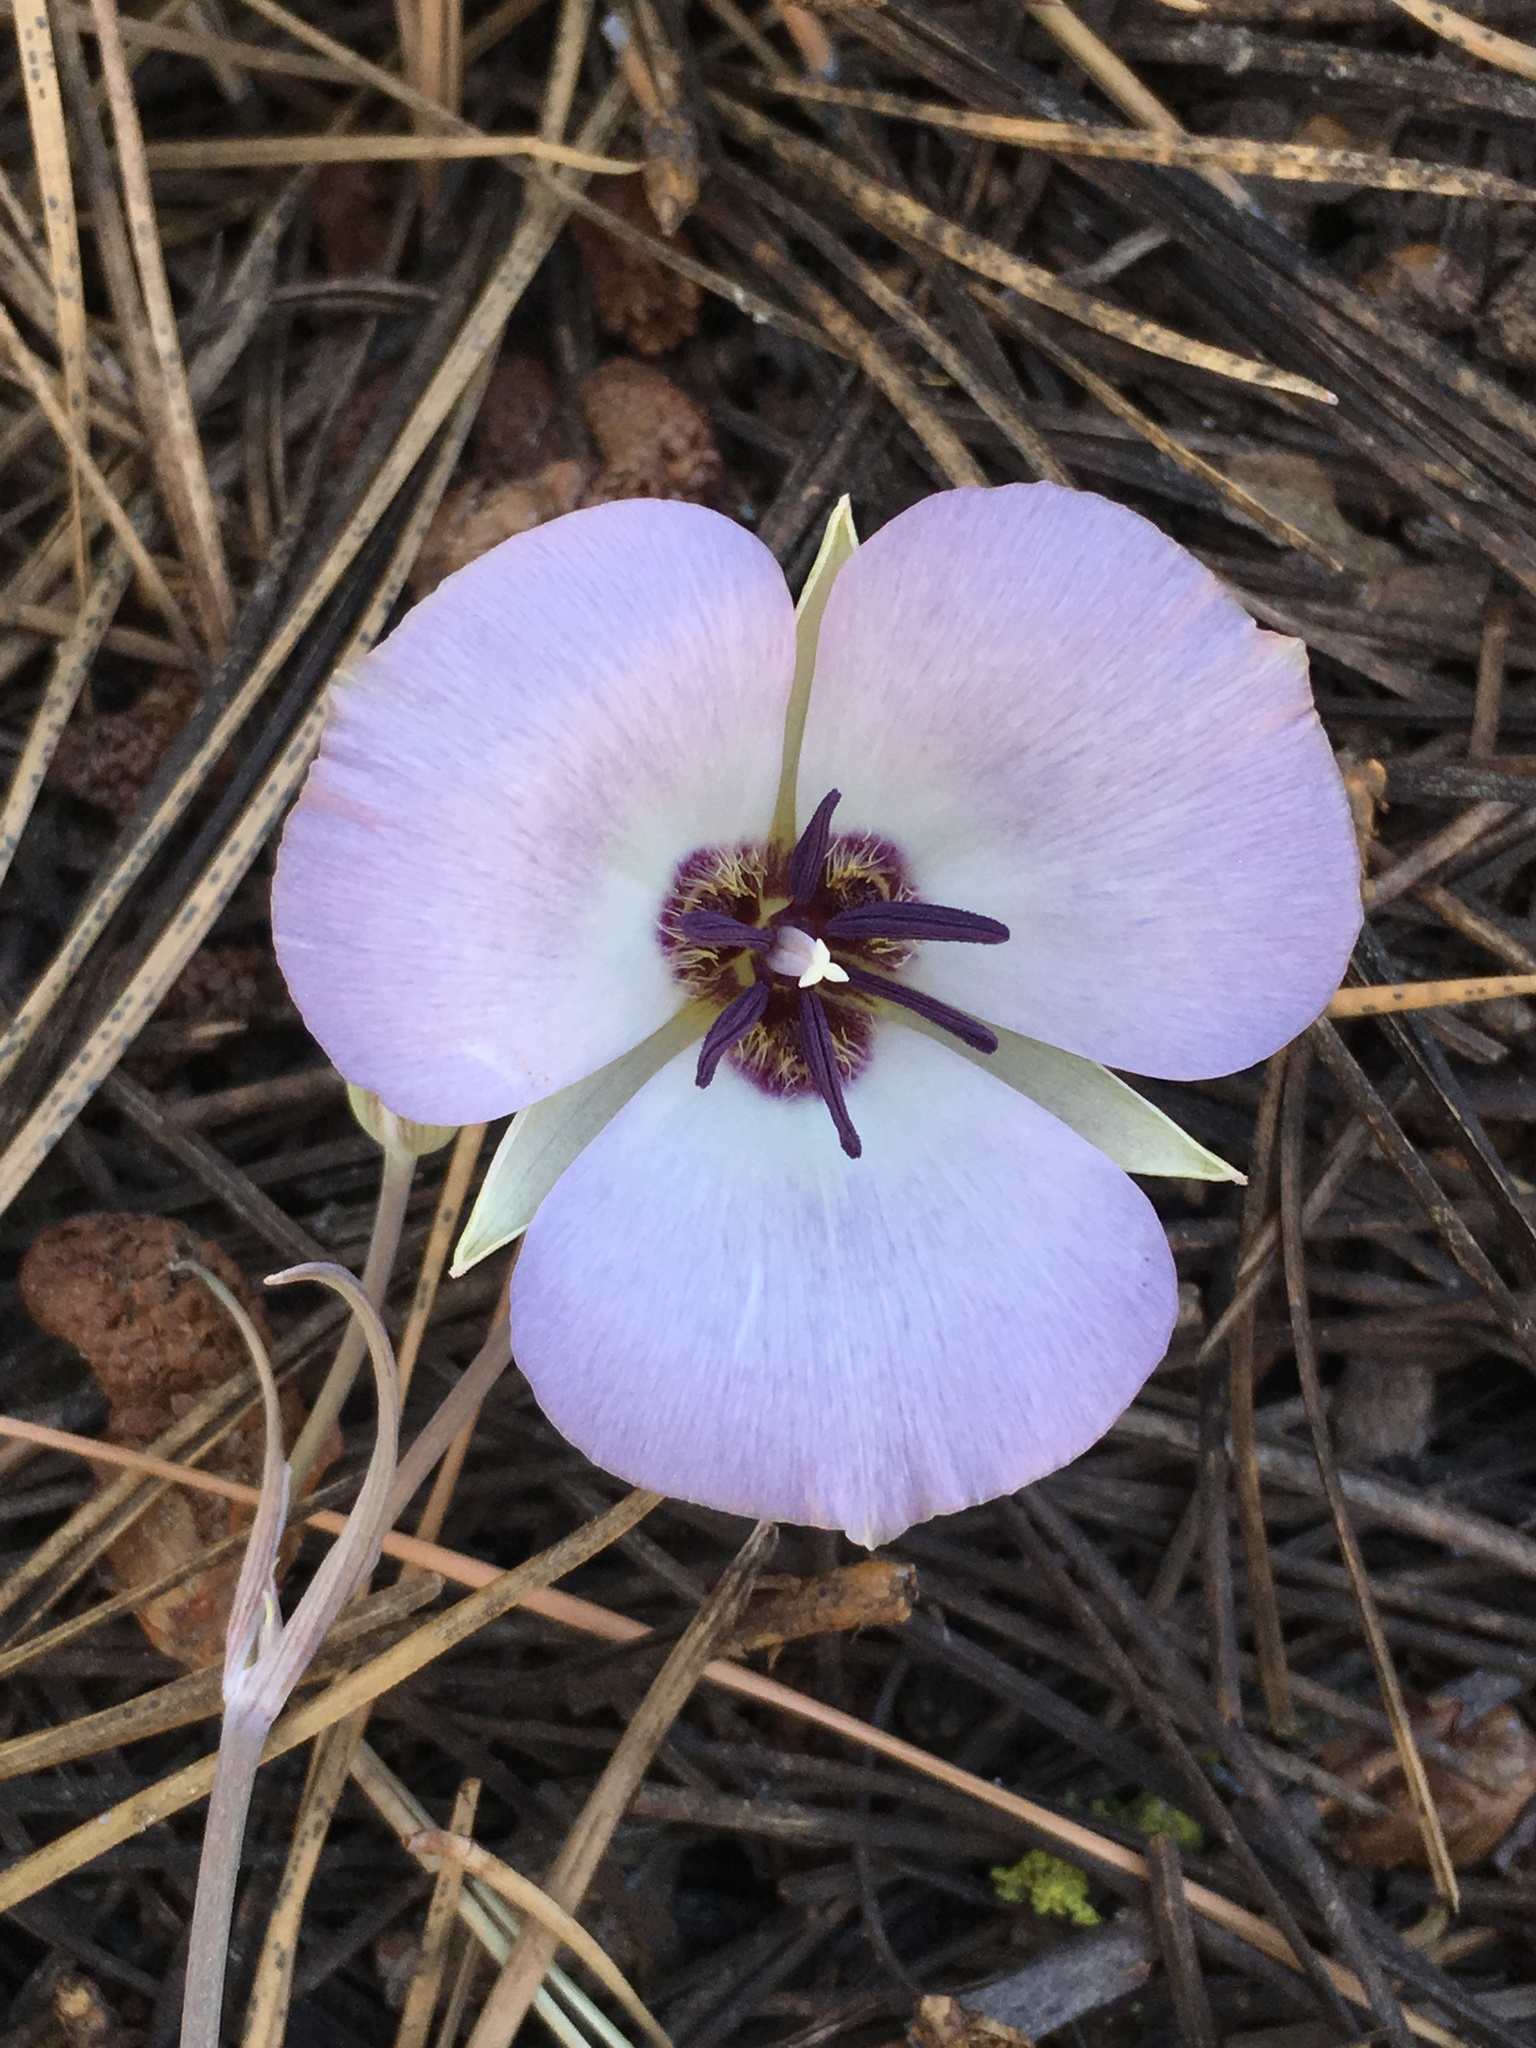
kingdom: Plantae
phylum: Tracheophyta
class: Liliopsida
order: Liliales
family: Liliaceae
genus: Calochortus
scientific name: Calochortus invenustus
